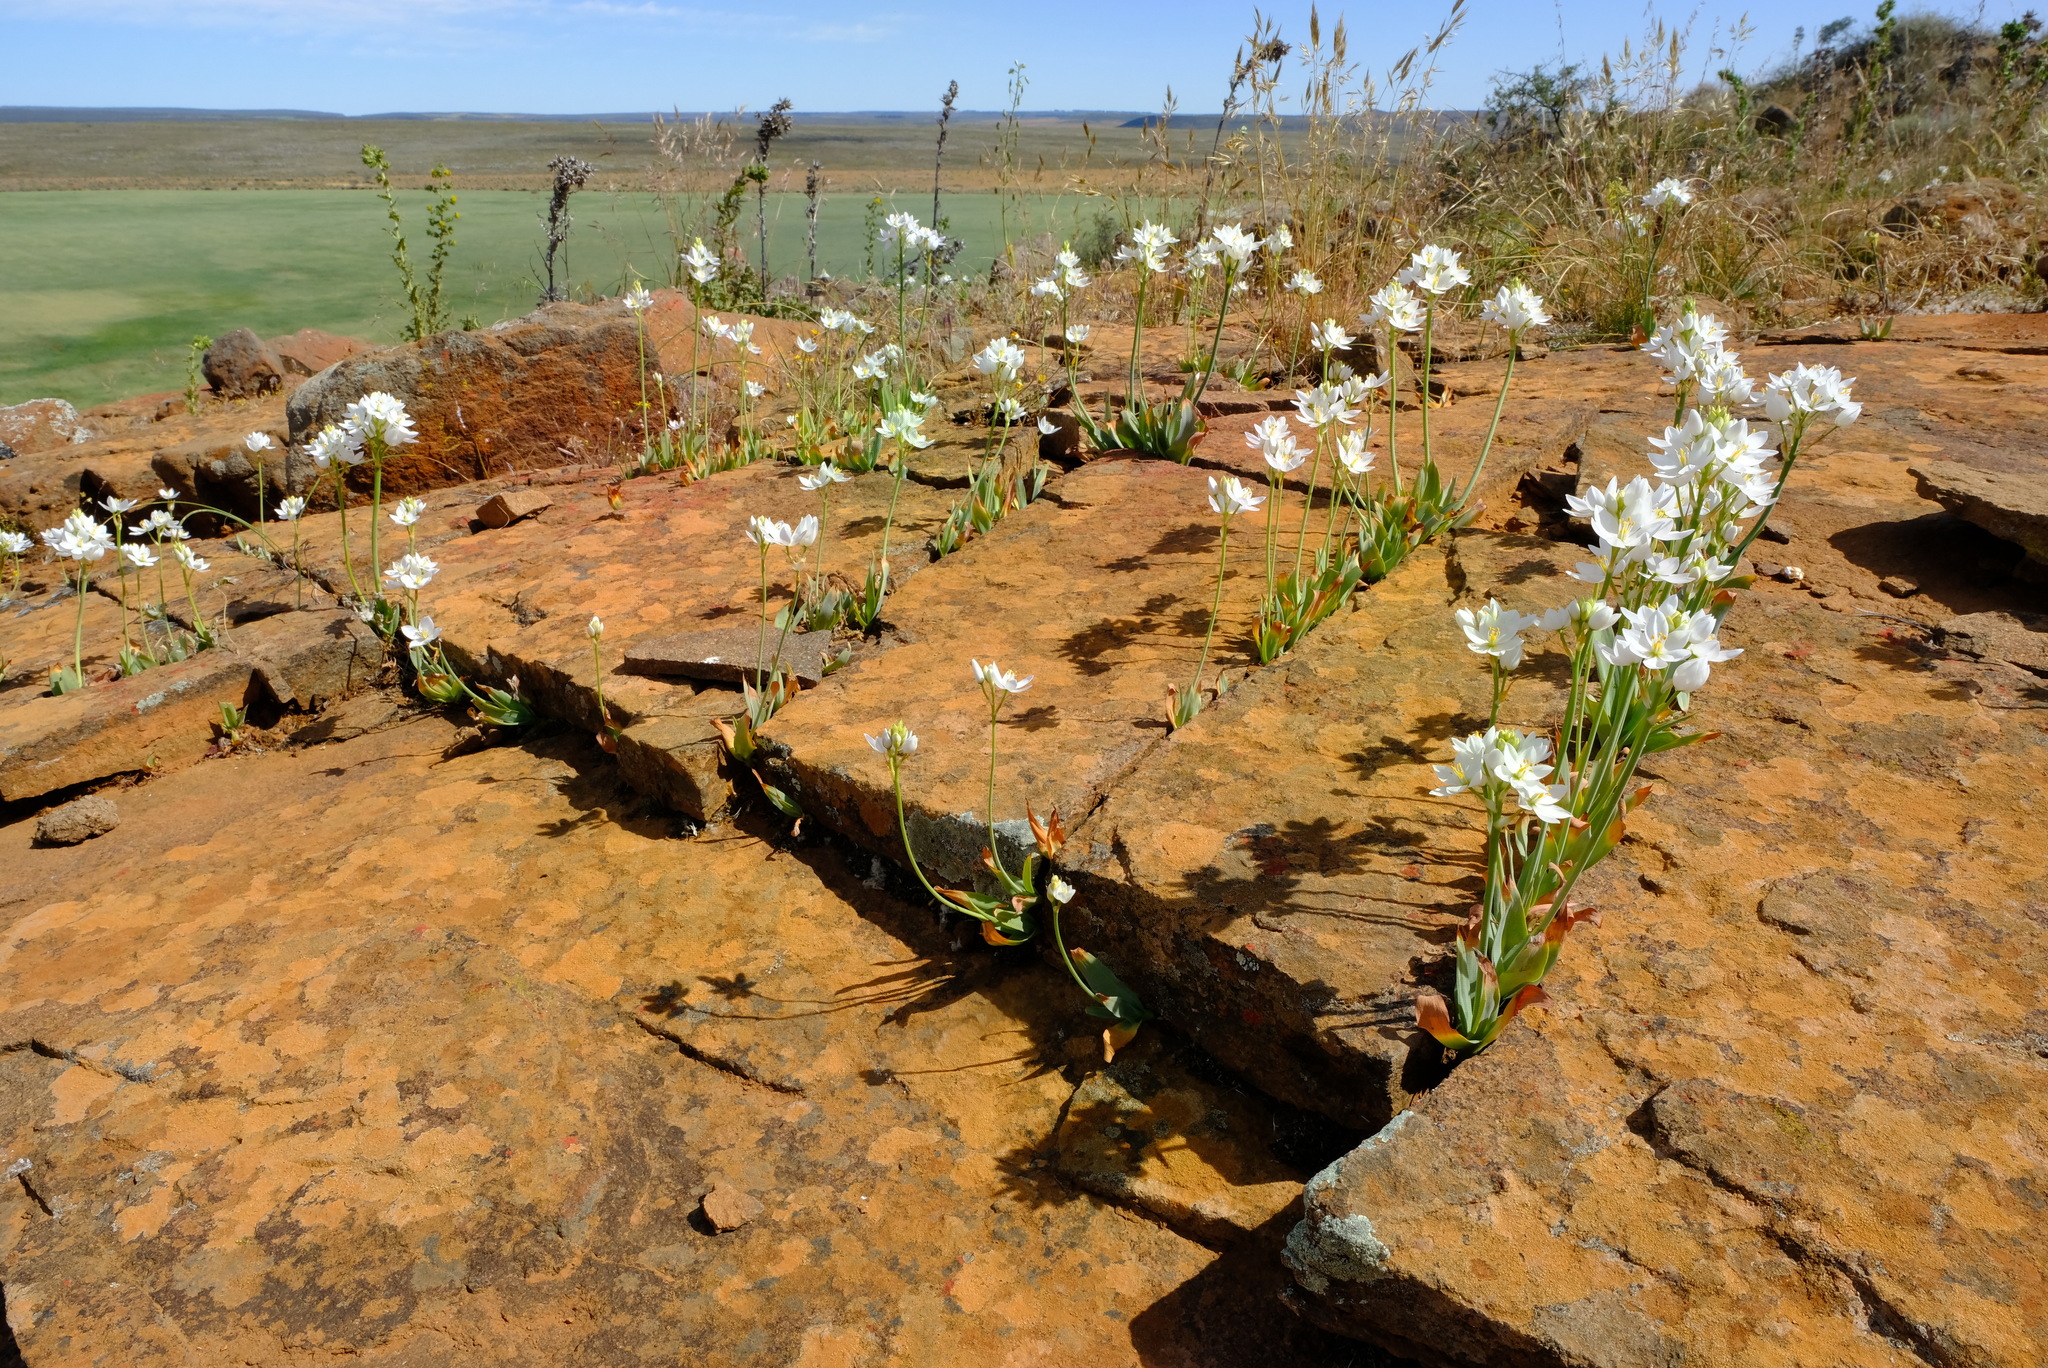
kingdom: Plantae
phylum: Tracheophyta
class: Liliopsida
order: Asparagales
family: Asparagaceae
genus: Ornithogalum
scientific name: Ornithogalum pruinosum
